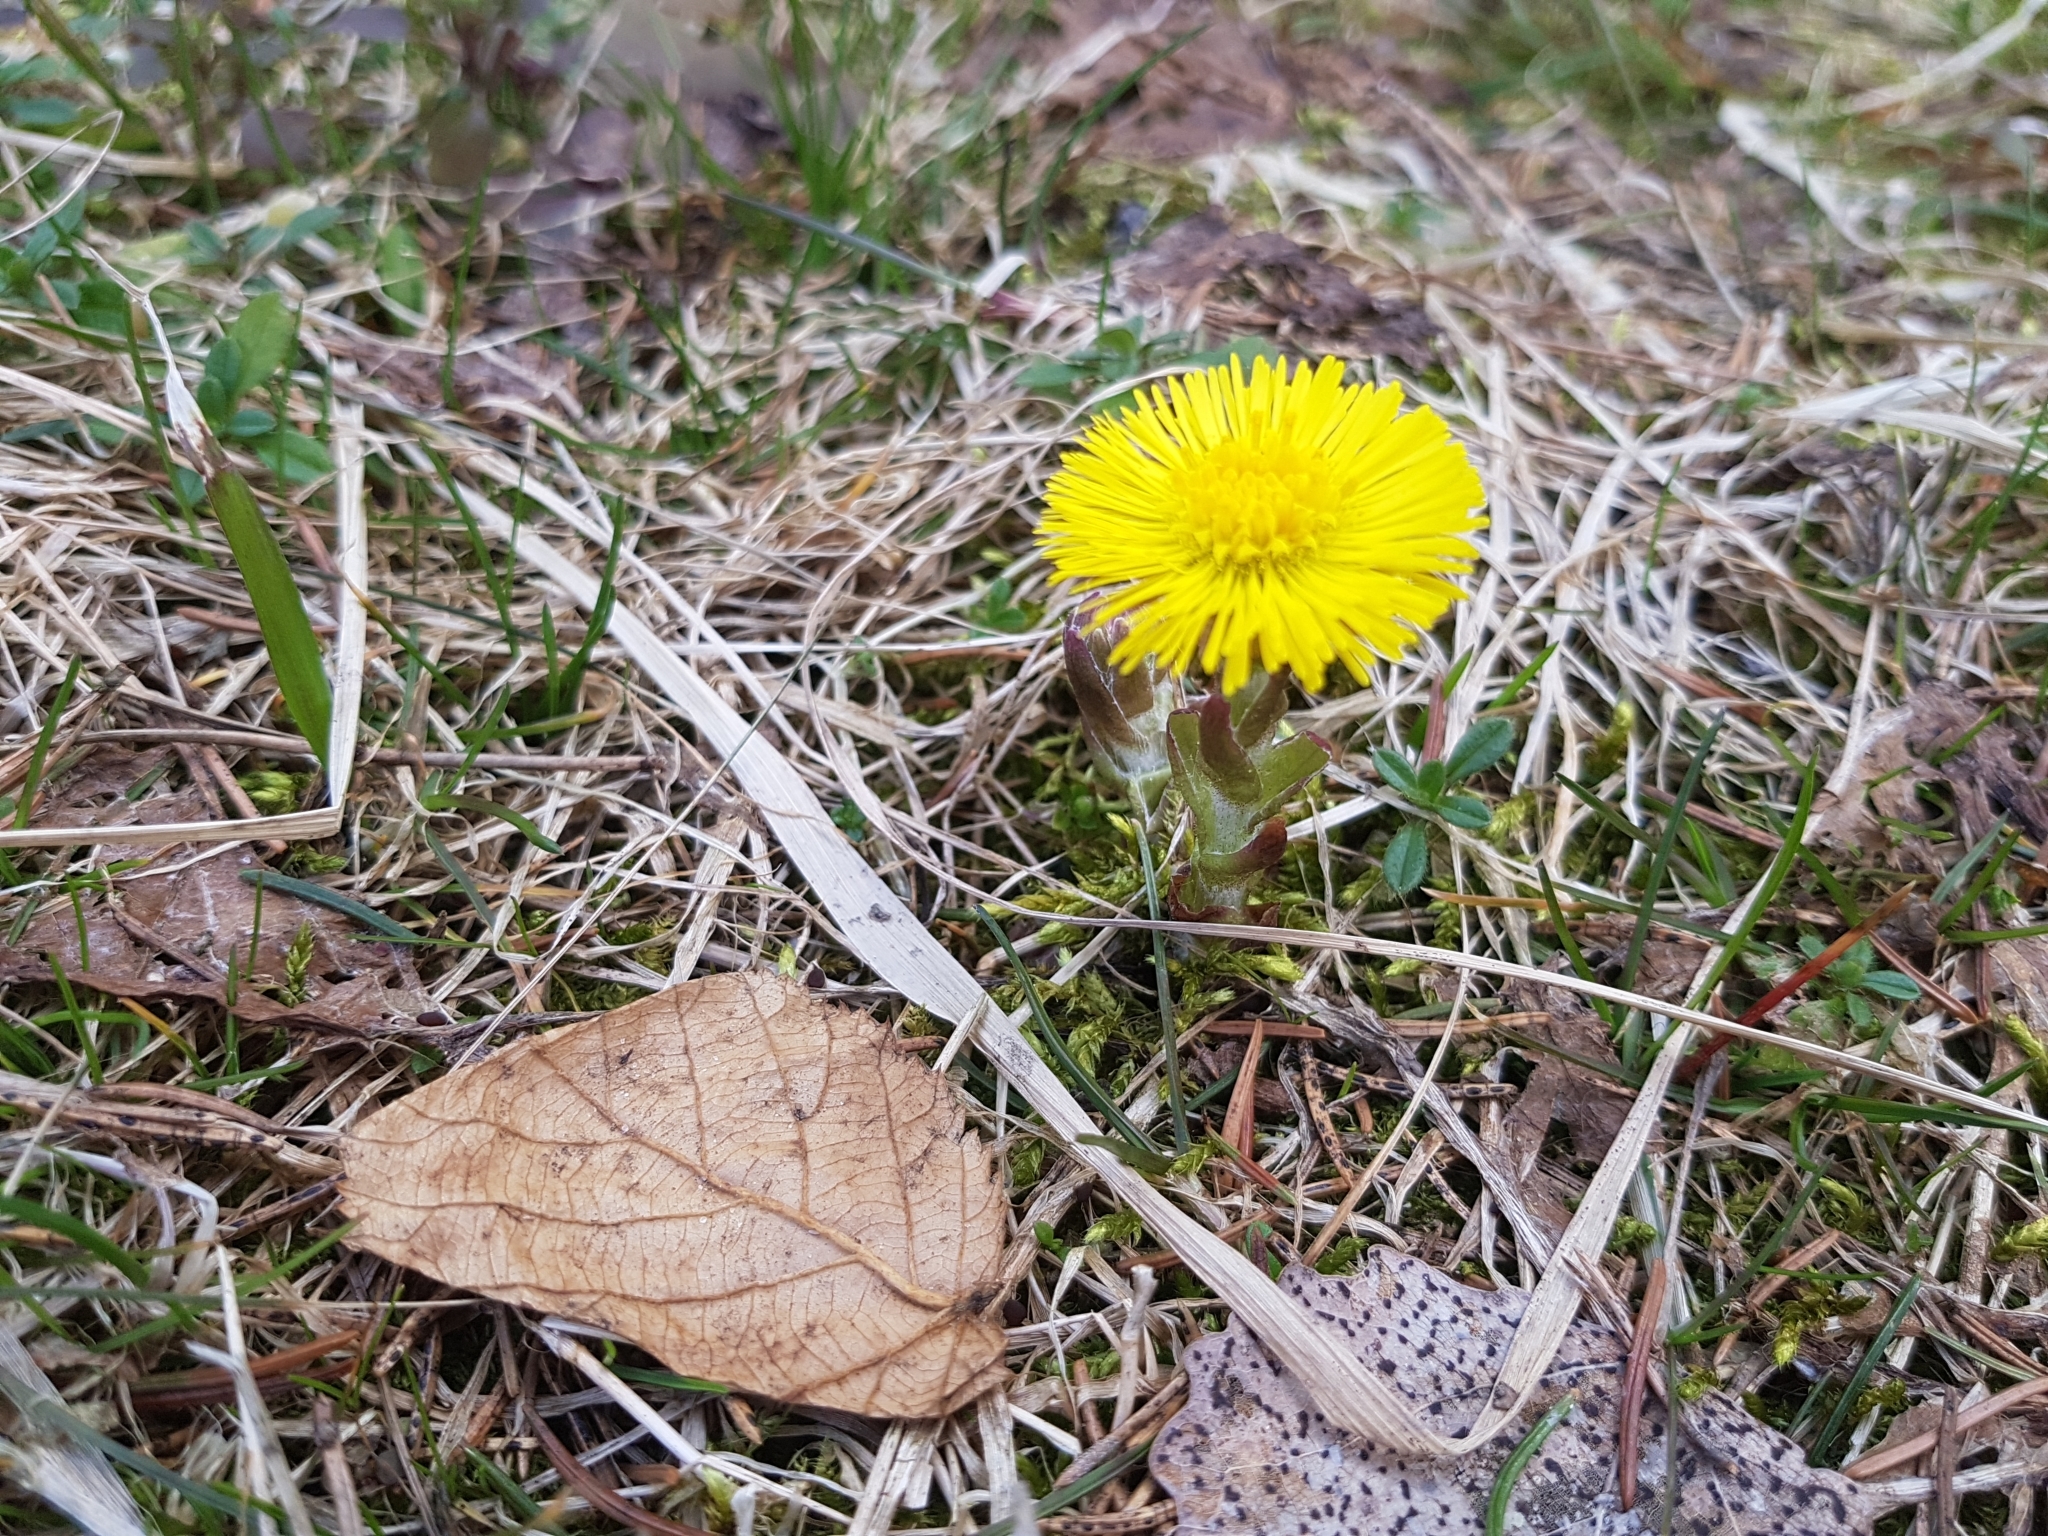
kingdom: Plantae
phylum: Tracheophyta
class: Magnoliopsida
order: Asterales
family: Asteraceae
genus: Tussilago
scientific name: Tussilago farfara
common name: Coltsfoot
